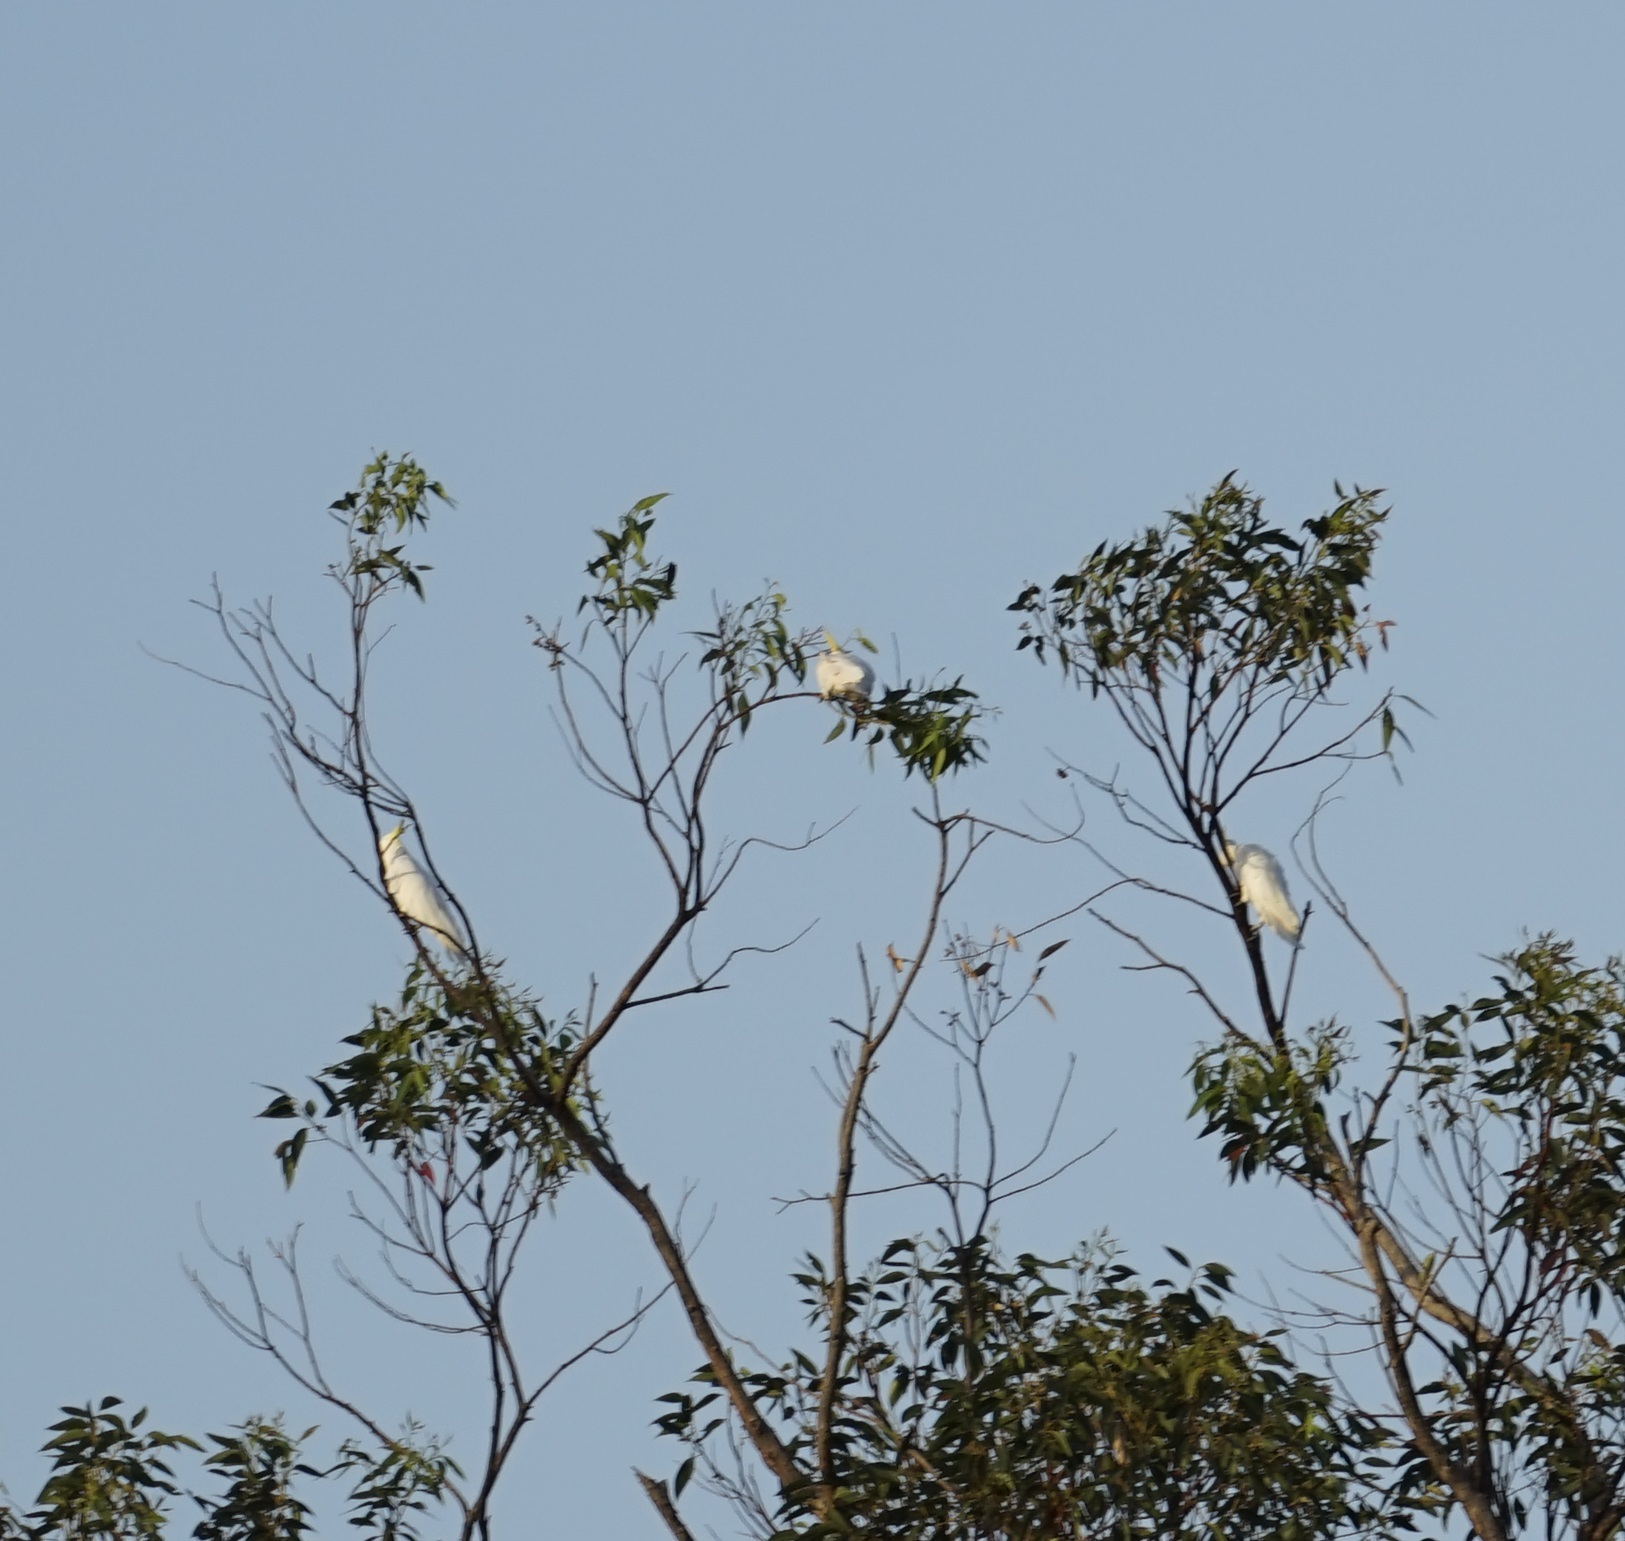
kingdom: Animalia
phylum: Chordata
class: Aves
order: Psittaciformes
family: Psittacidae
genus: Cacatua
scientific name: Cacatua galerita
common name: Sulphur-crested cockatoo
